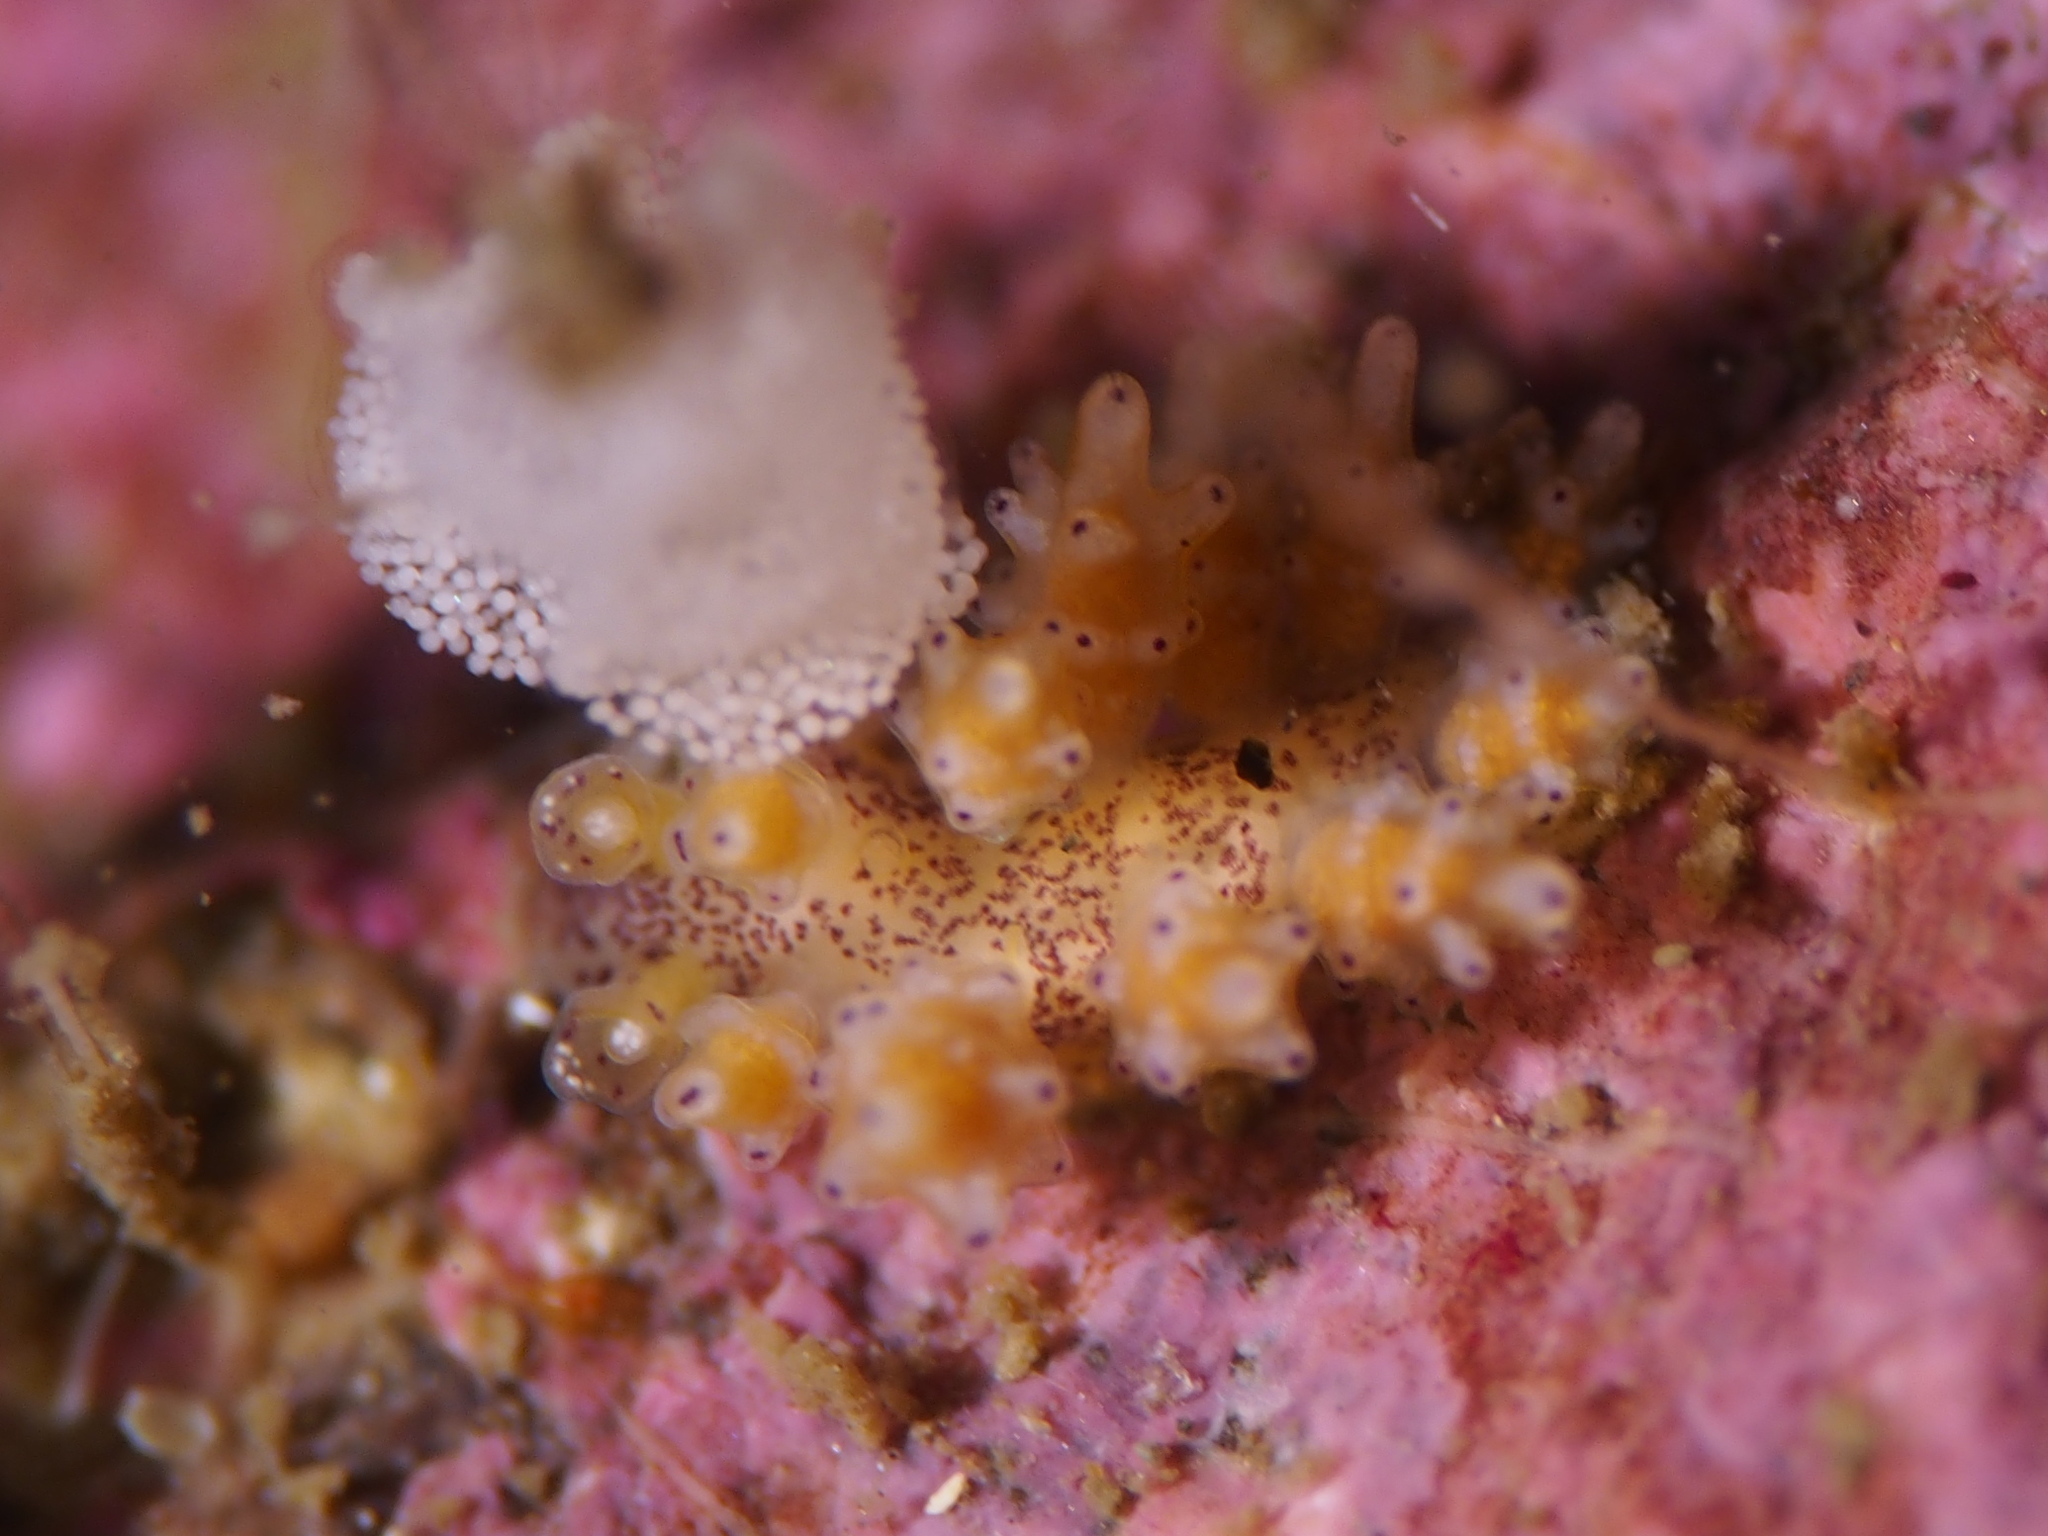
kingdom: Animalia
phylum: Mollusca
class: Gastropoda
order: Nudibranchia
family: Dotidae
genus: Doto
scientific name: Doto dunnei
